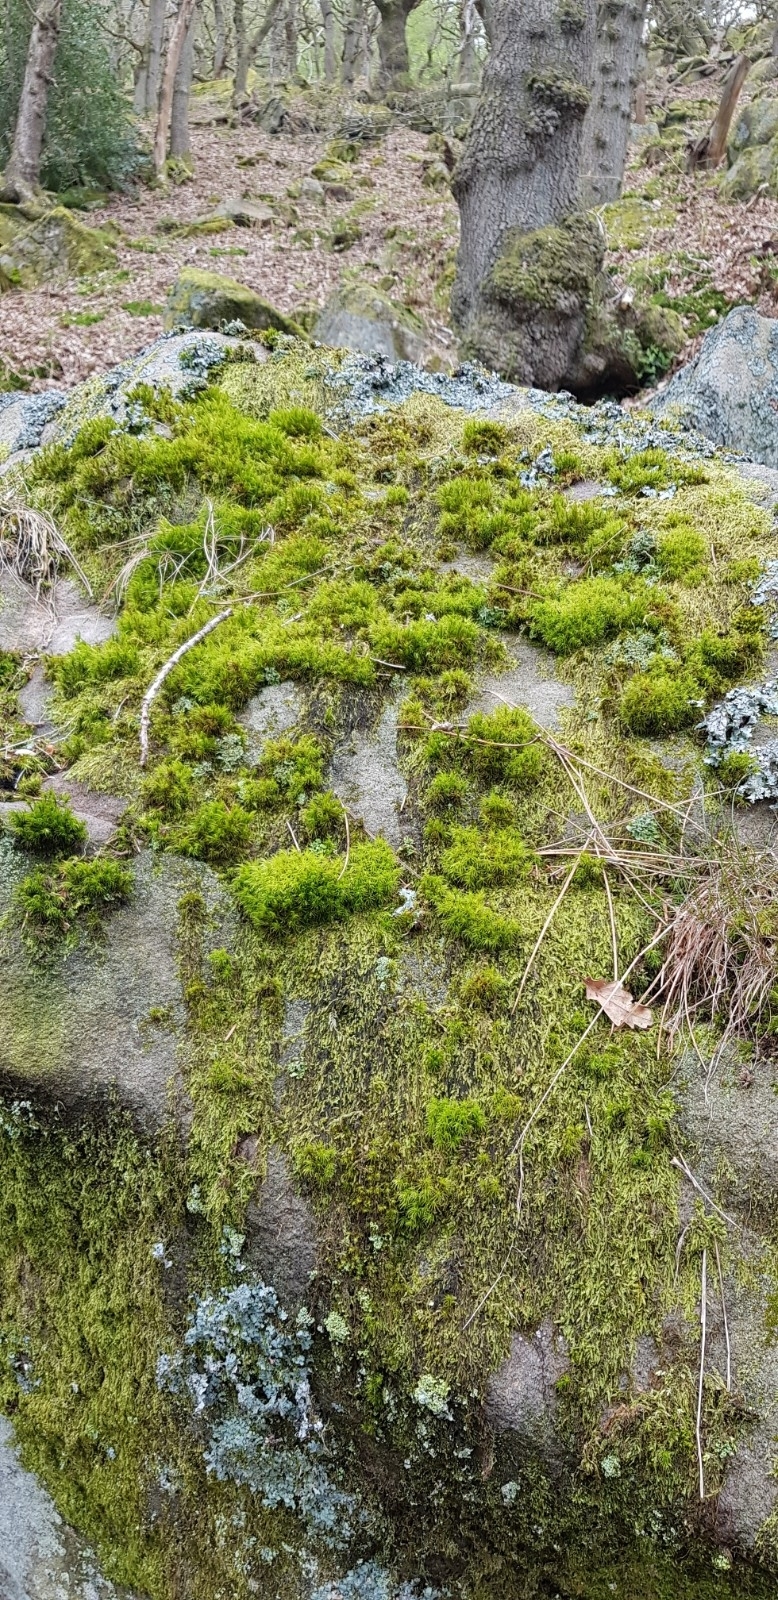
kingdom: Plantae
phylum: Bryophyta
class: Bryopsida
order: Dicranales
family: Dicranaceae
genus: Dicranum
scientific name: Dicranum scoparium
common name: Broom fork-moss
